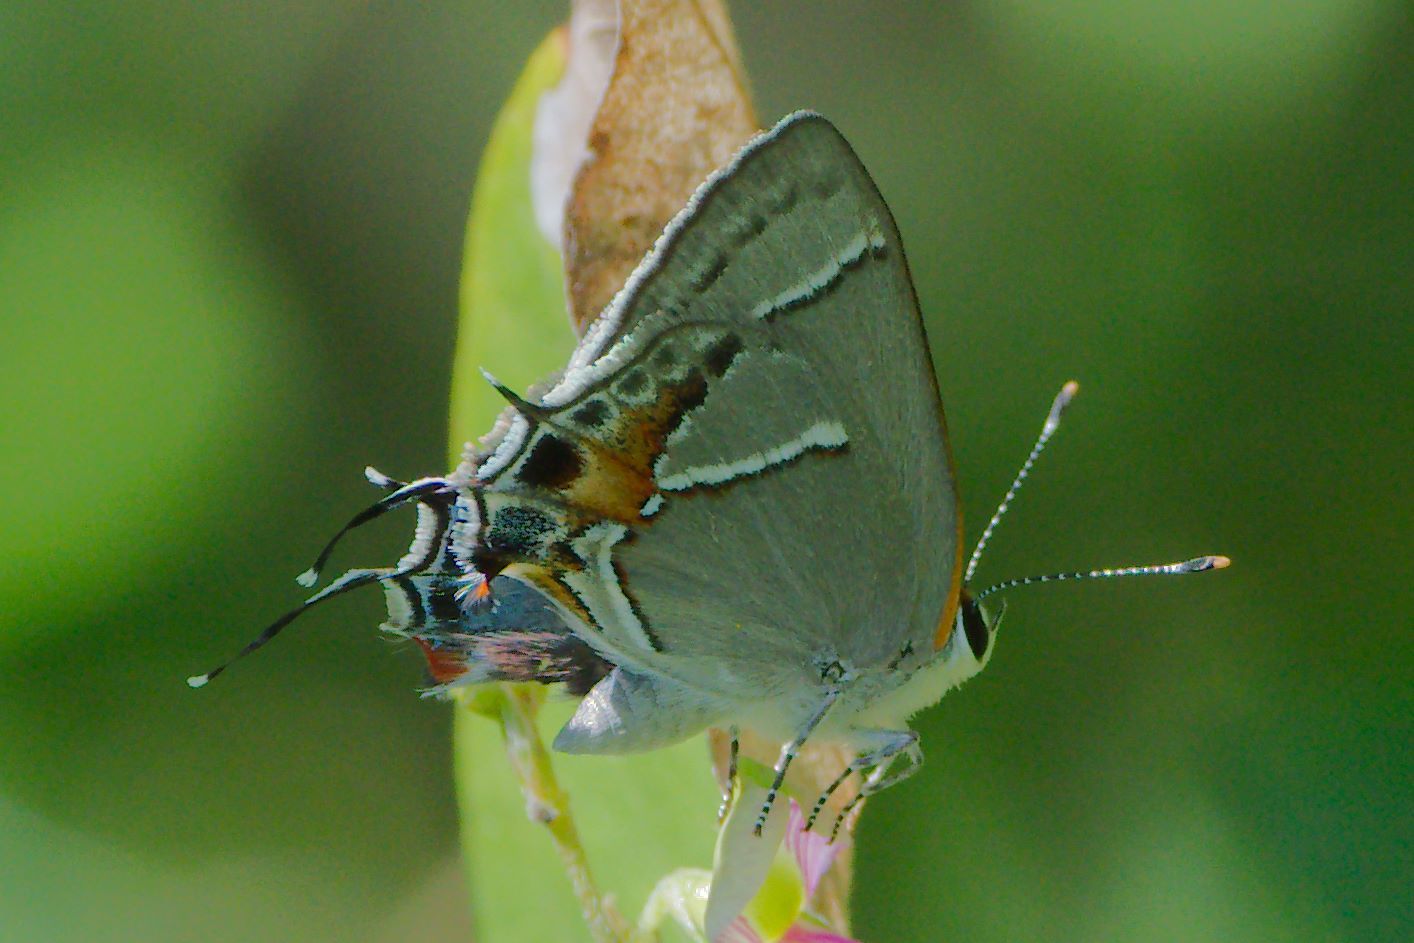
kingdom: Animalia
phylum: Arthropoda
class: Insecta
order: Lepidoptera
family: Lycaenidae
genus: Thecla
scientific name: Thecla martialis
